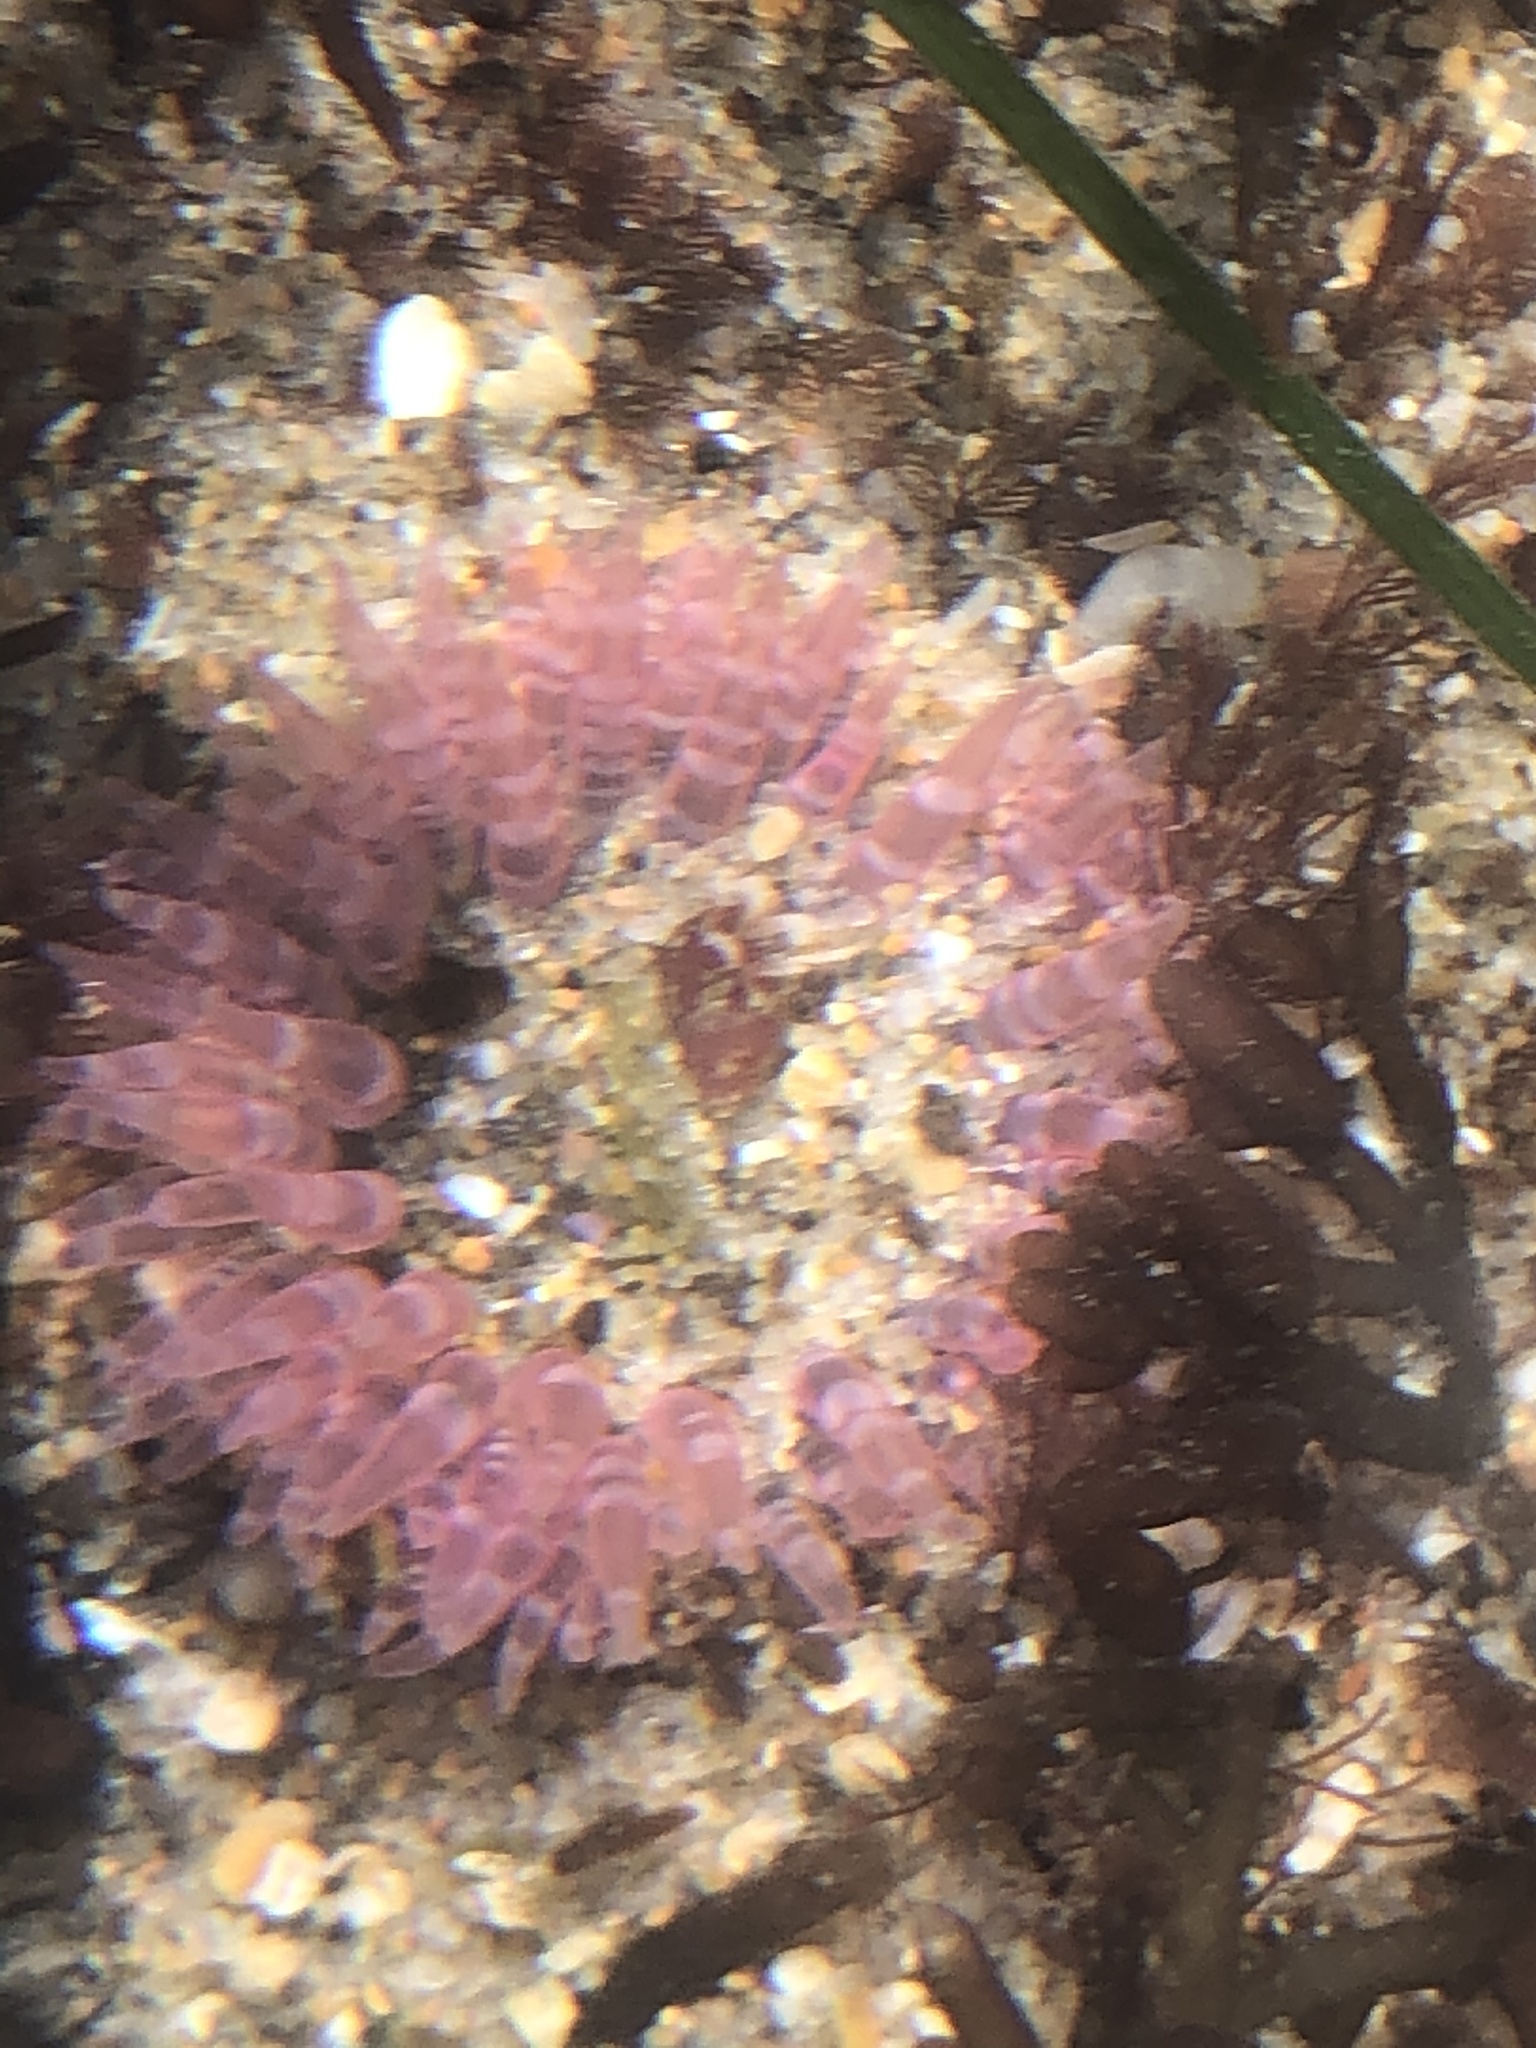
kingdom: Animalia
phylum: Cnidaria
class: Anthozoa
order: Actiniaria
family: Actiniidae
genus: Anthopleura
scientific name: Anthopleura artemisia
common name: Buried sea anemone
